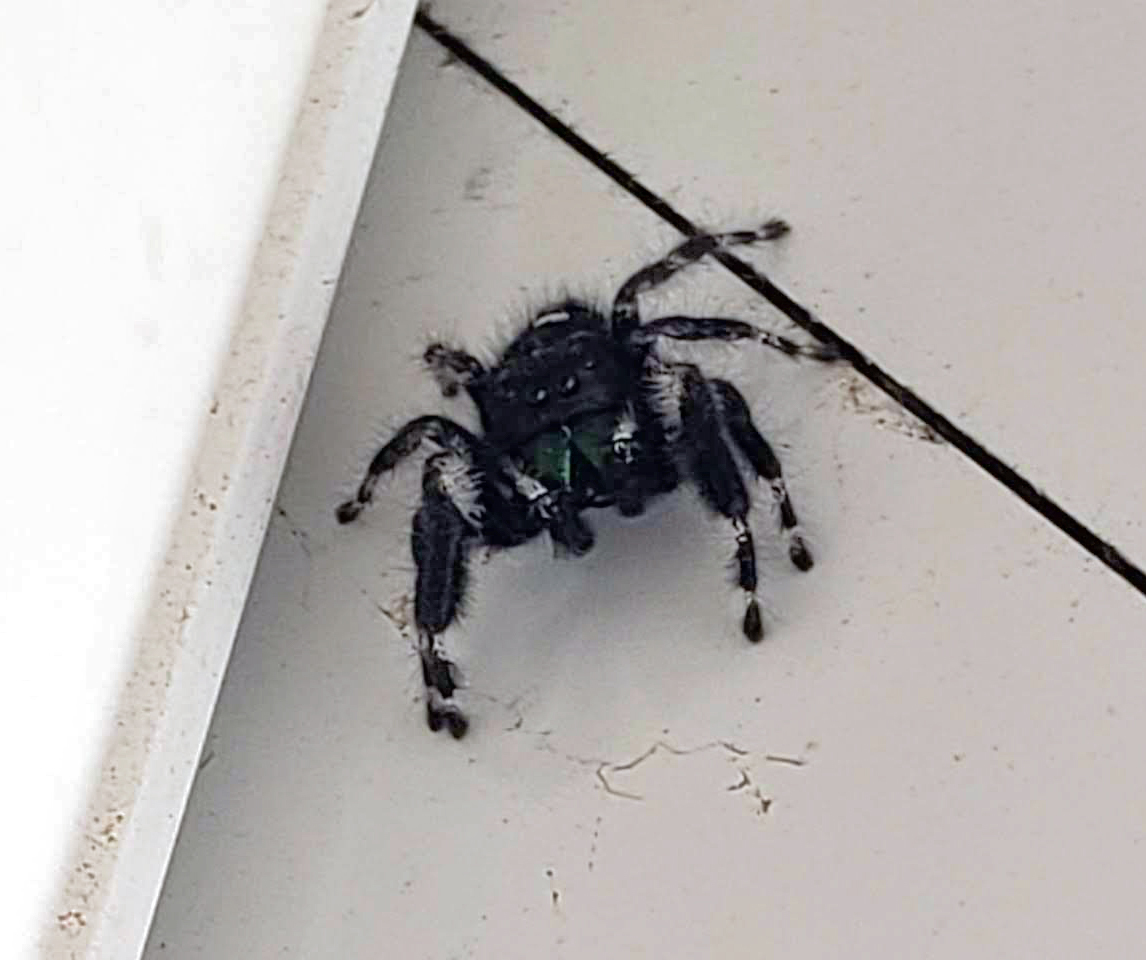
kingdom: Animalia
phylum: Arthropoda
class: Arachnida
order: Araneae
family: Salticidae
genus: Phidippus
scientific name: Phidippus audax
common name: Bold jumper
